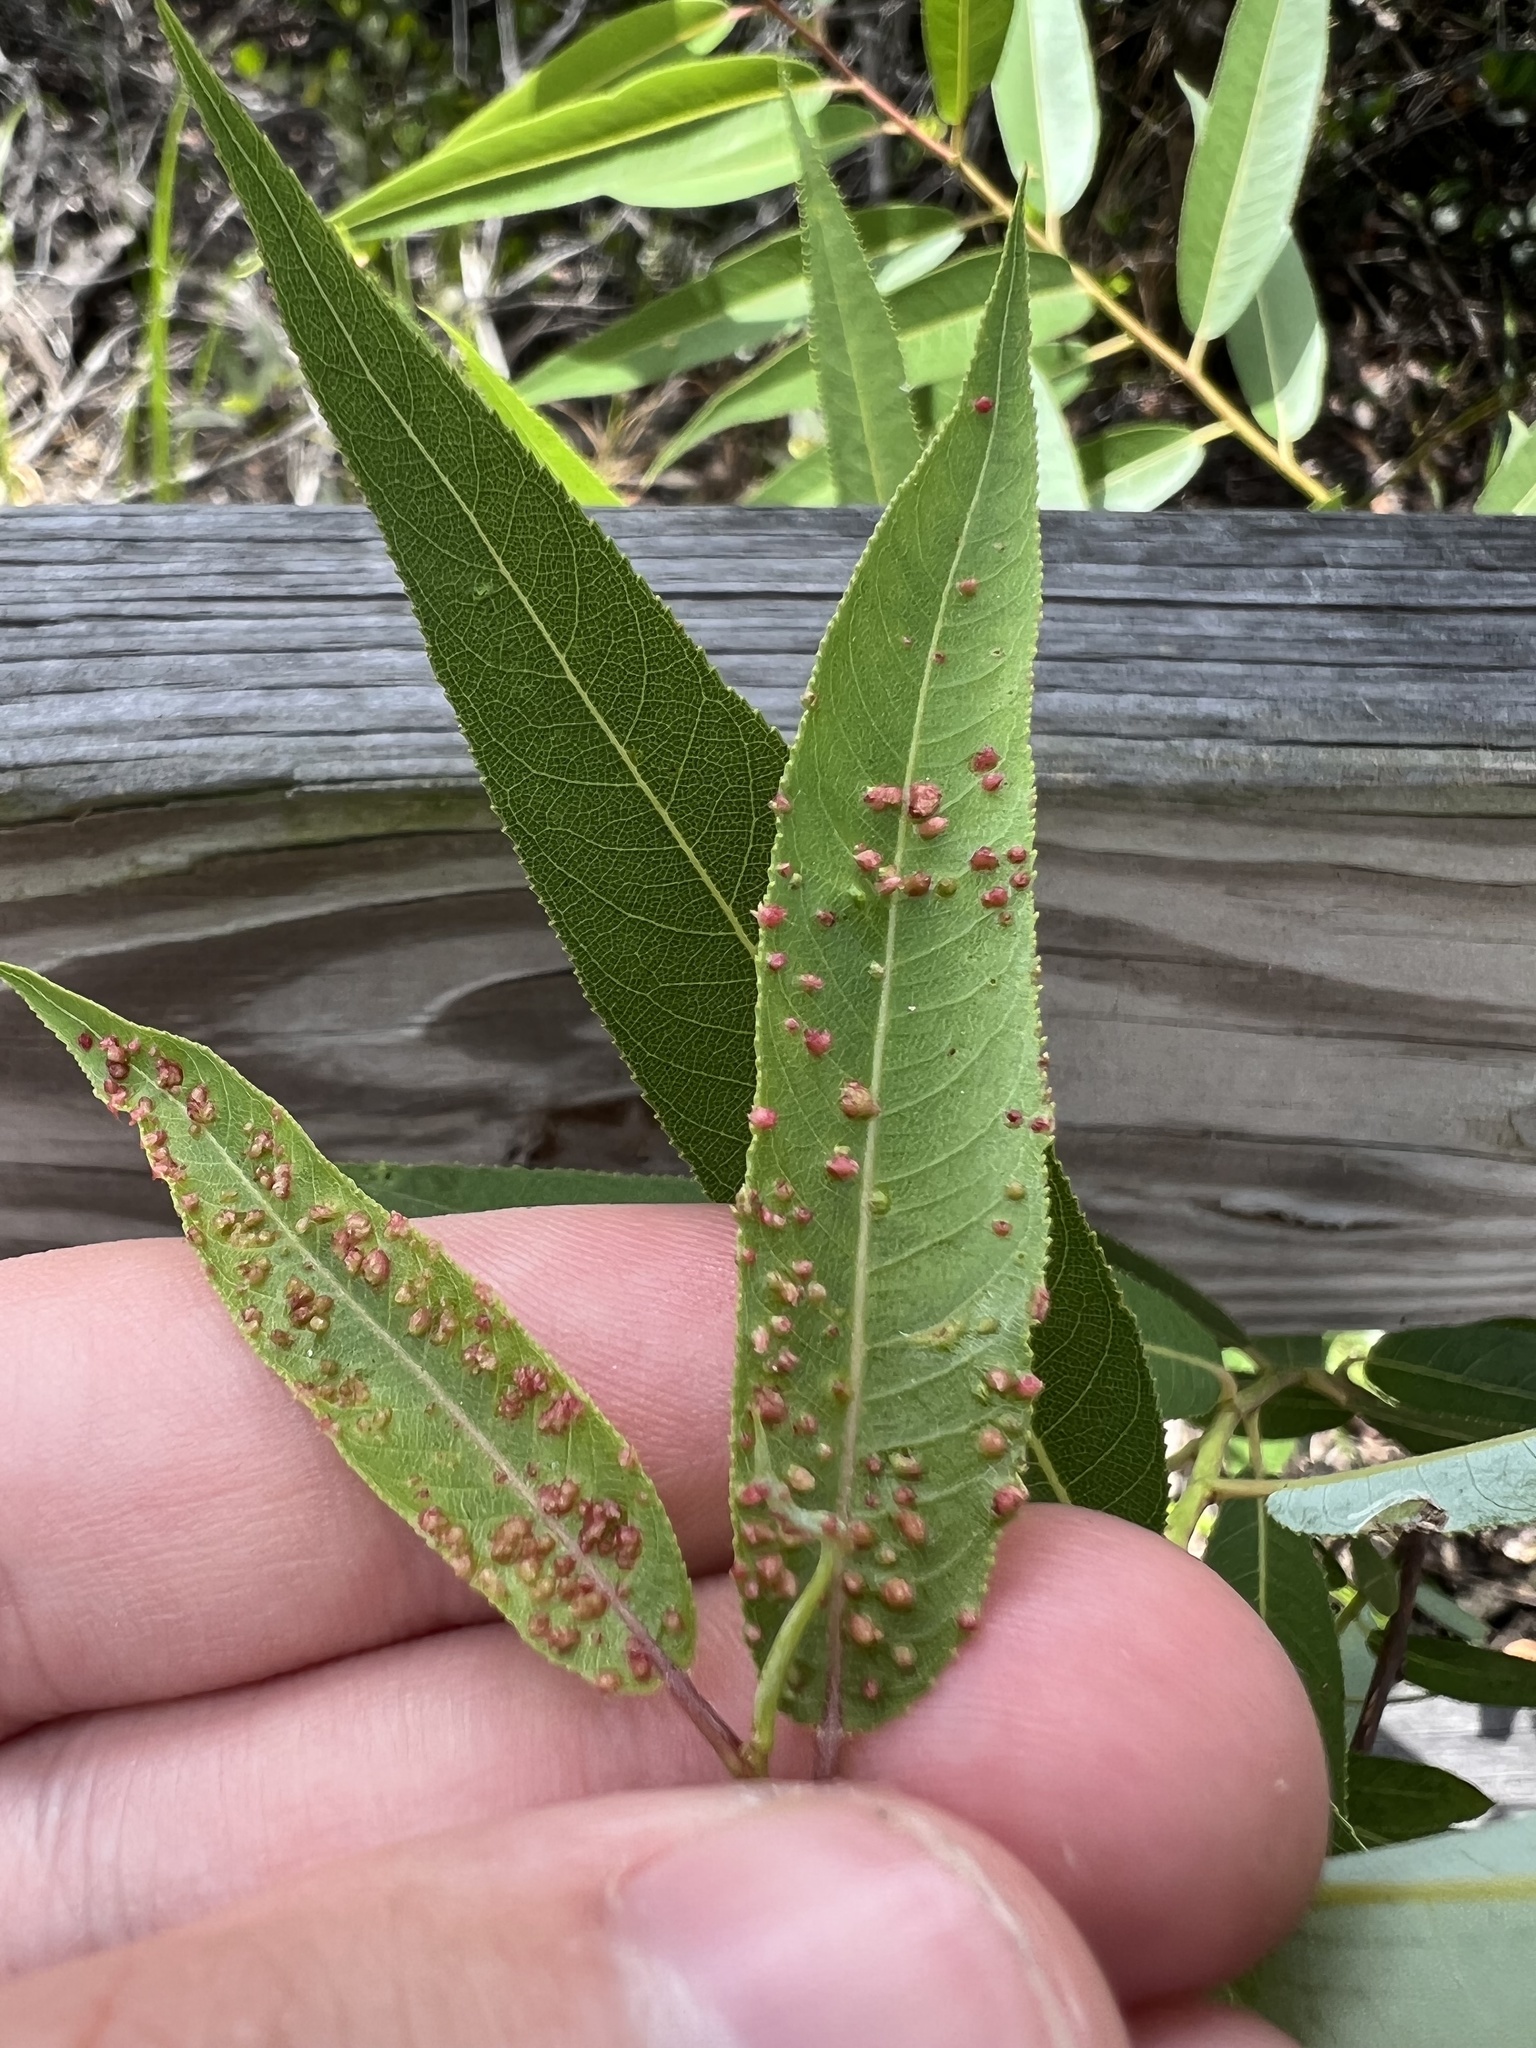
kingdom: Animalia
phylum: Arthropoda
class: Arachnida
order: Trombidiformes
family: Eriophyidae
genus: Aculus
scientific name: Aculus tetanothrix
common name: Willow bead gall mite
